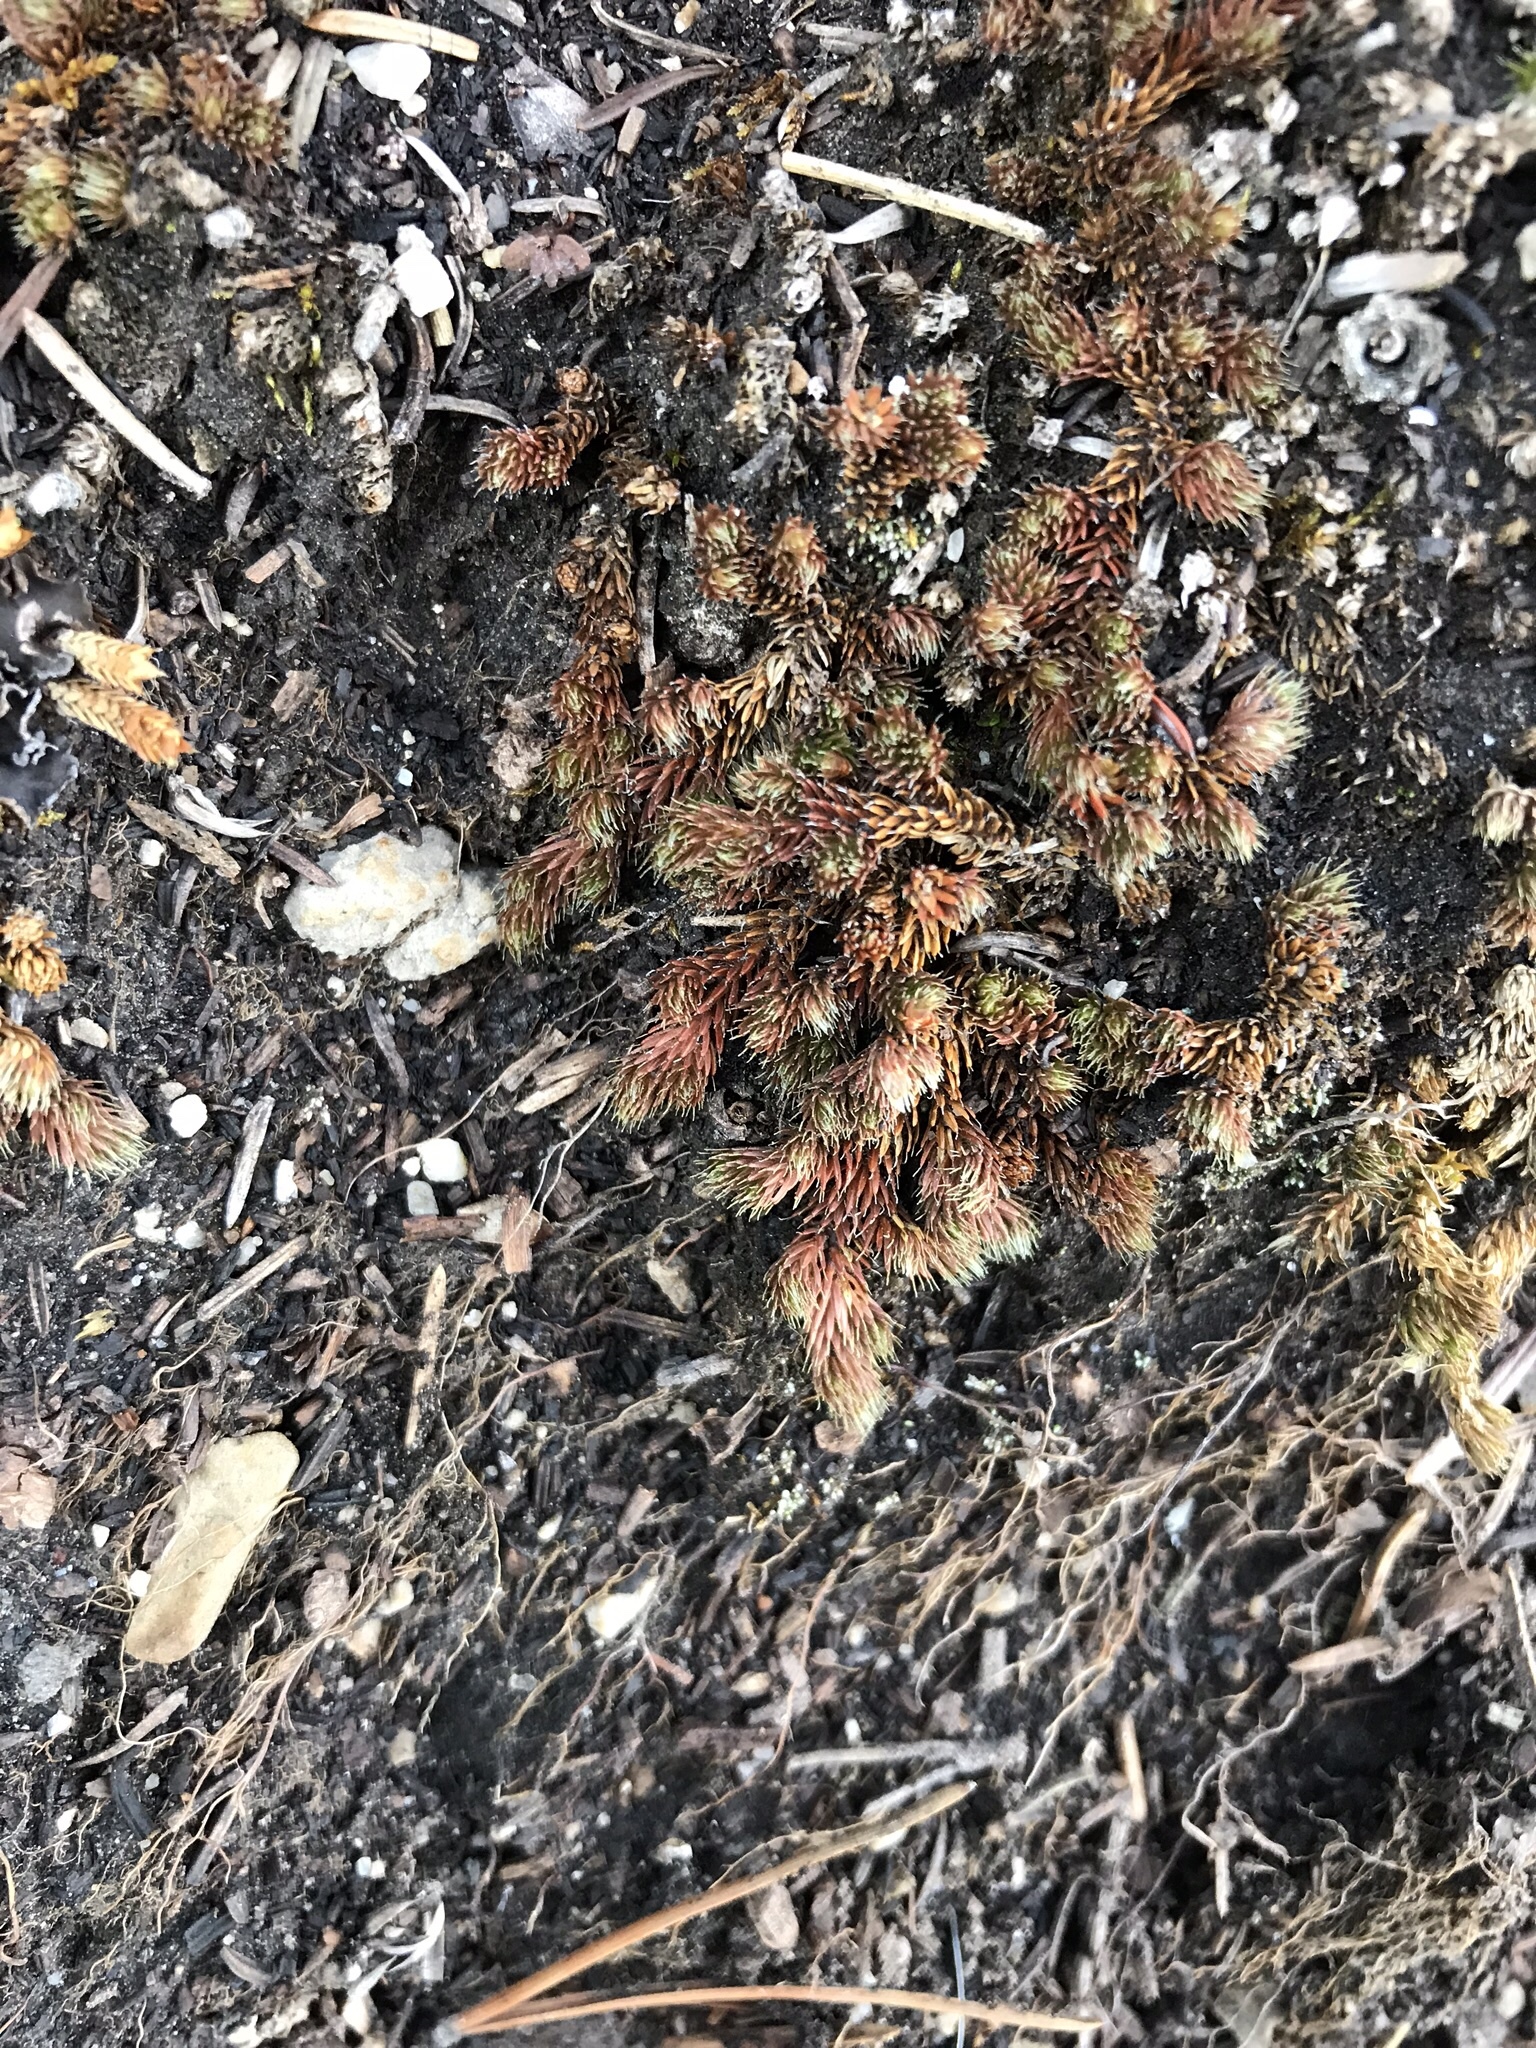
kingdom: Plantae
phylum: Tracheophyta
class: Lycopodiopsida
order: Selaginellales
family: Selaginellaceae
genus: Selaginella
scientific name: Selaginella densa
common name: Mountain spike-moss
